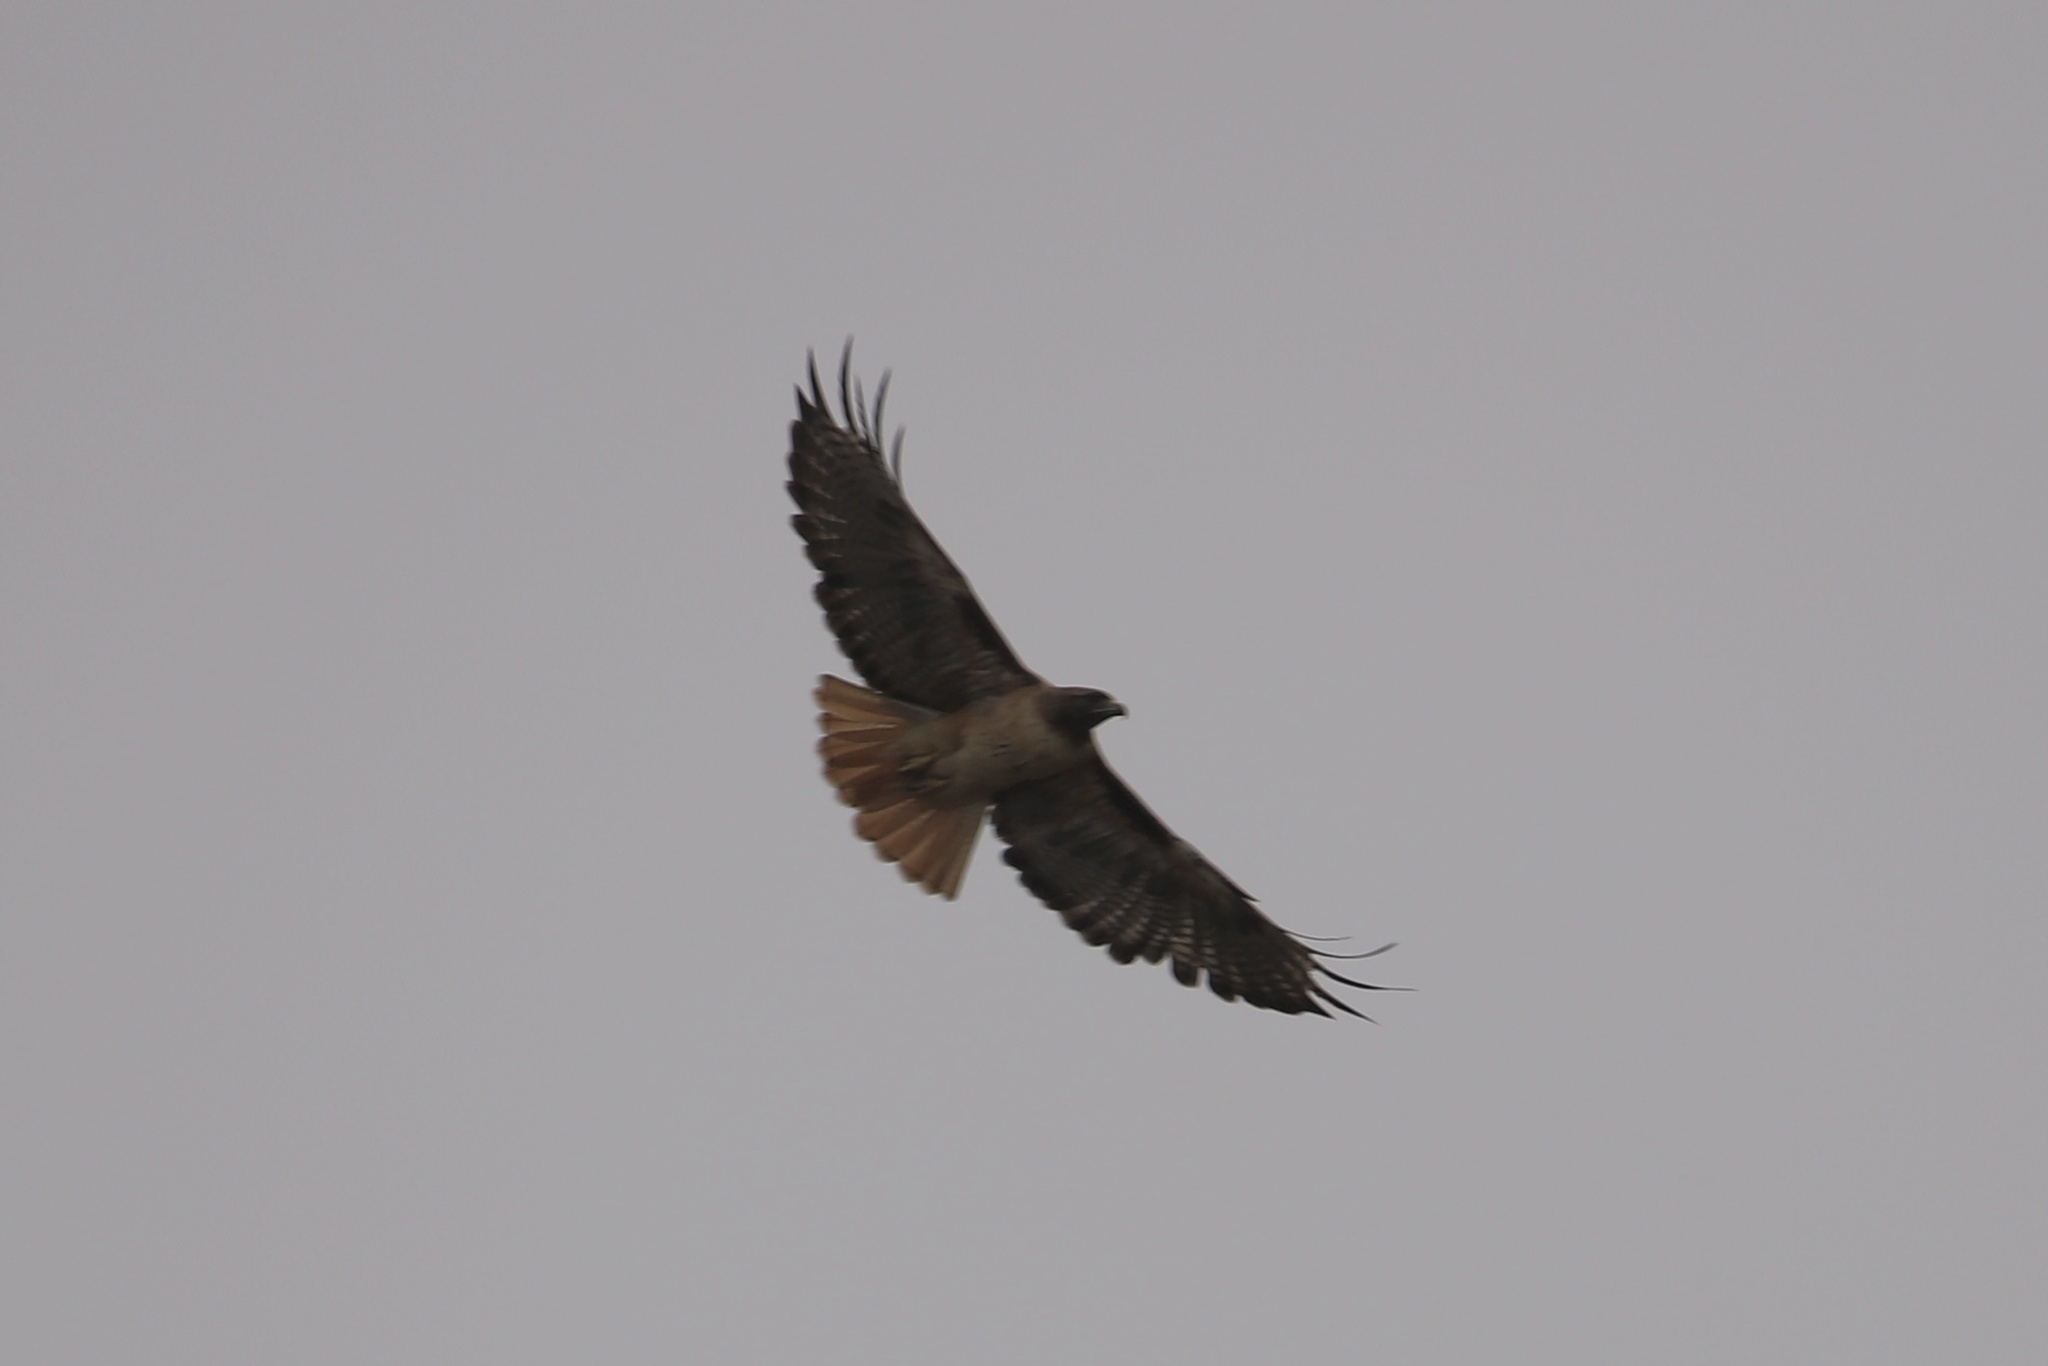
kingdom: Animalia
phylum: Chordata
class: Aves
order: Accipitriformes
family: Accipitridae
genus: Buteo
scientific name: Buteo jamaicensis
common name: Red-tailed hawk
